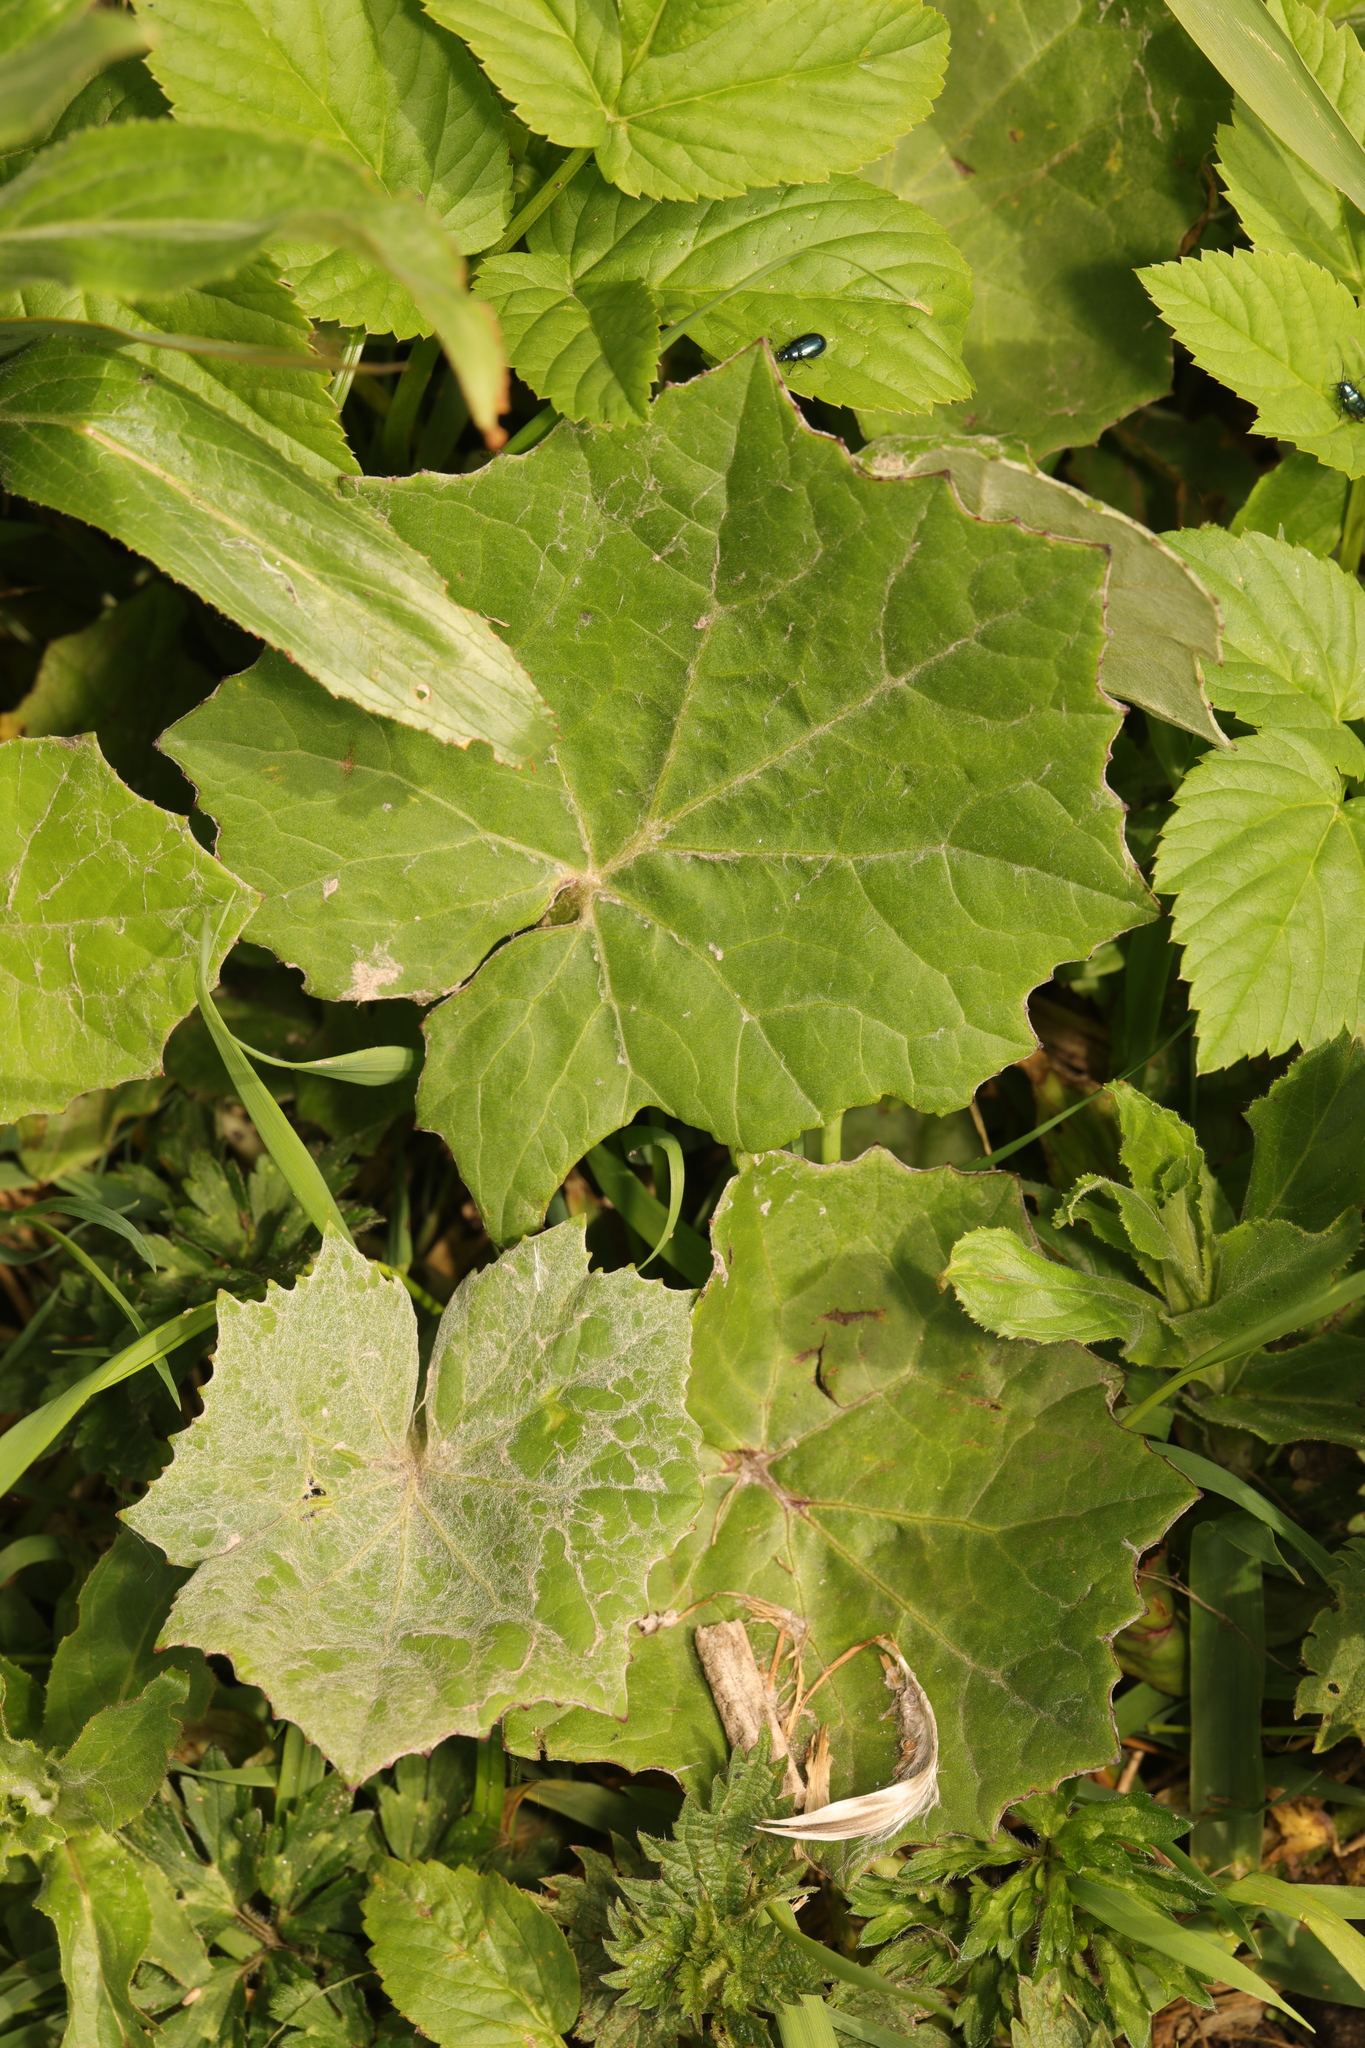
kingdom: Plantae
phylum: Tracheophyta
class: Magnoliopsida
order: Asterales
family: Asteraceae
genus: Tussilago
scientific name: Tussilago farfara
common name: Coltsfoot
